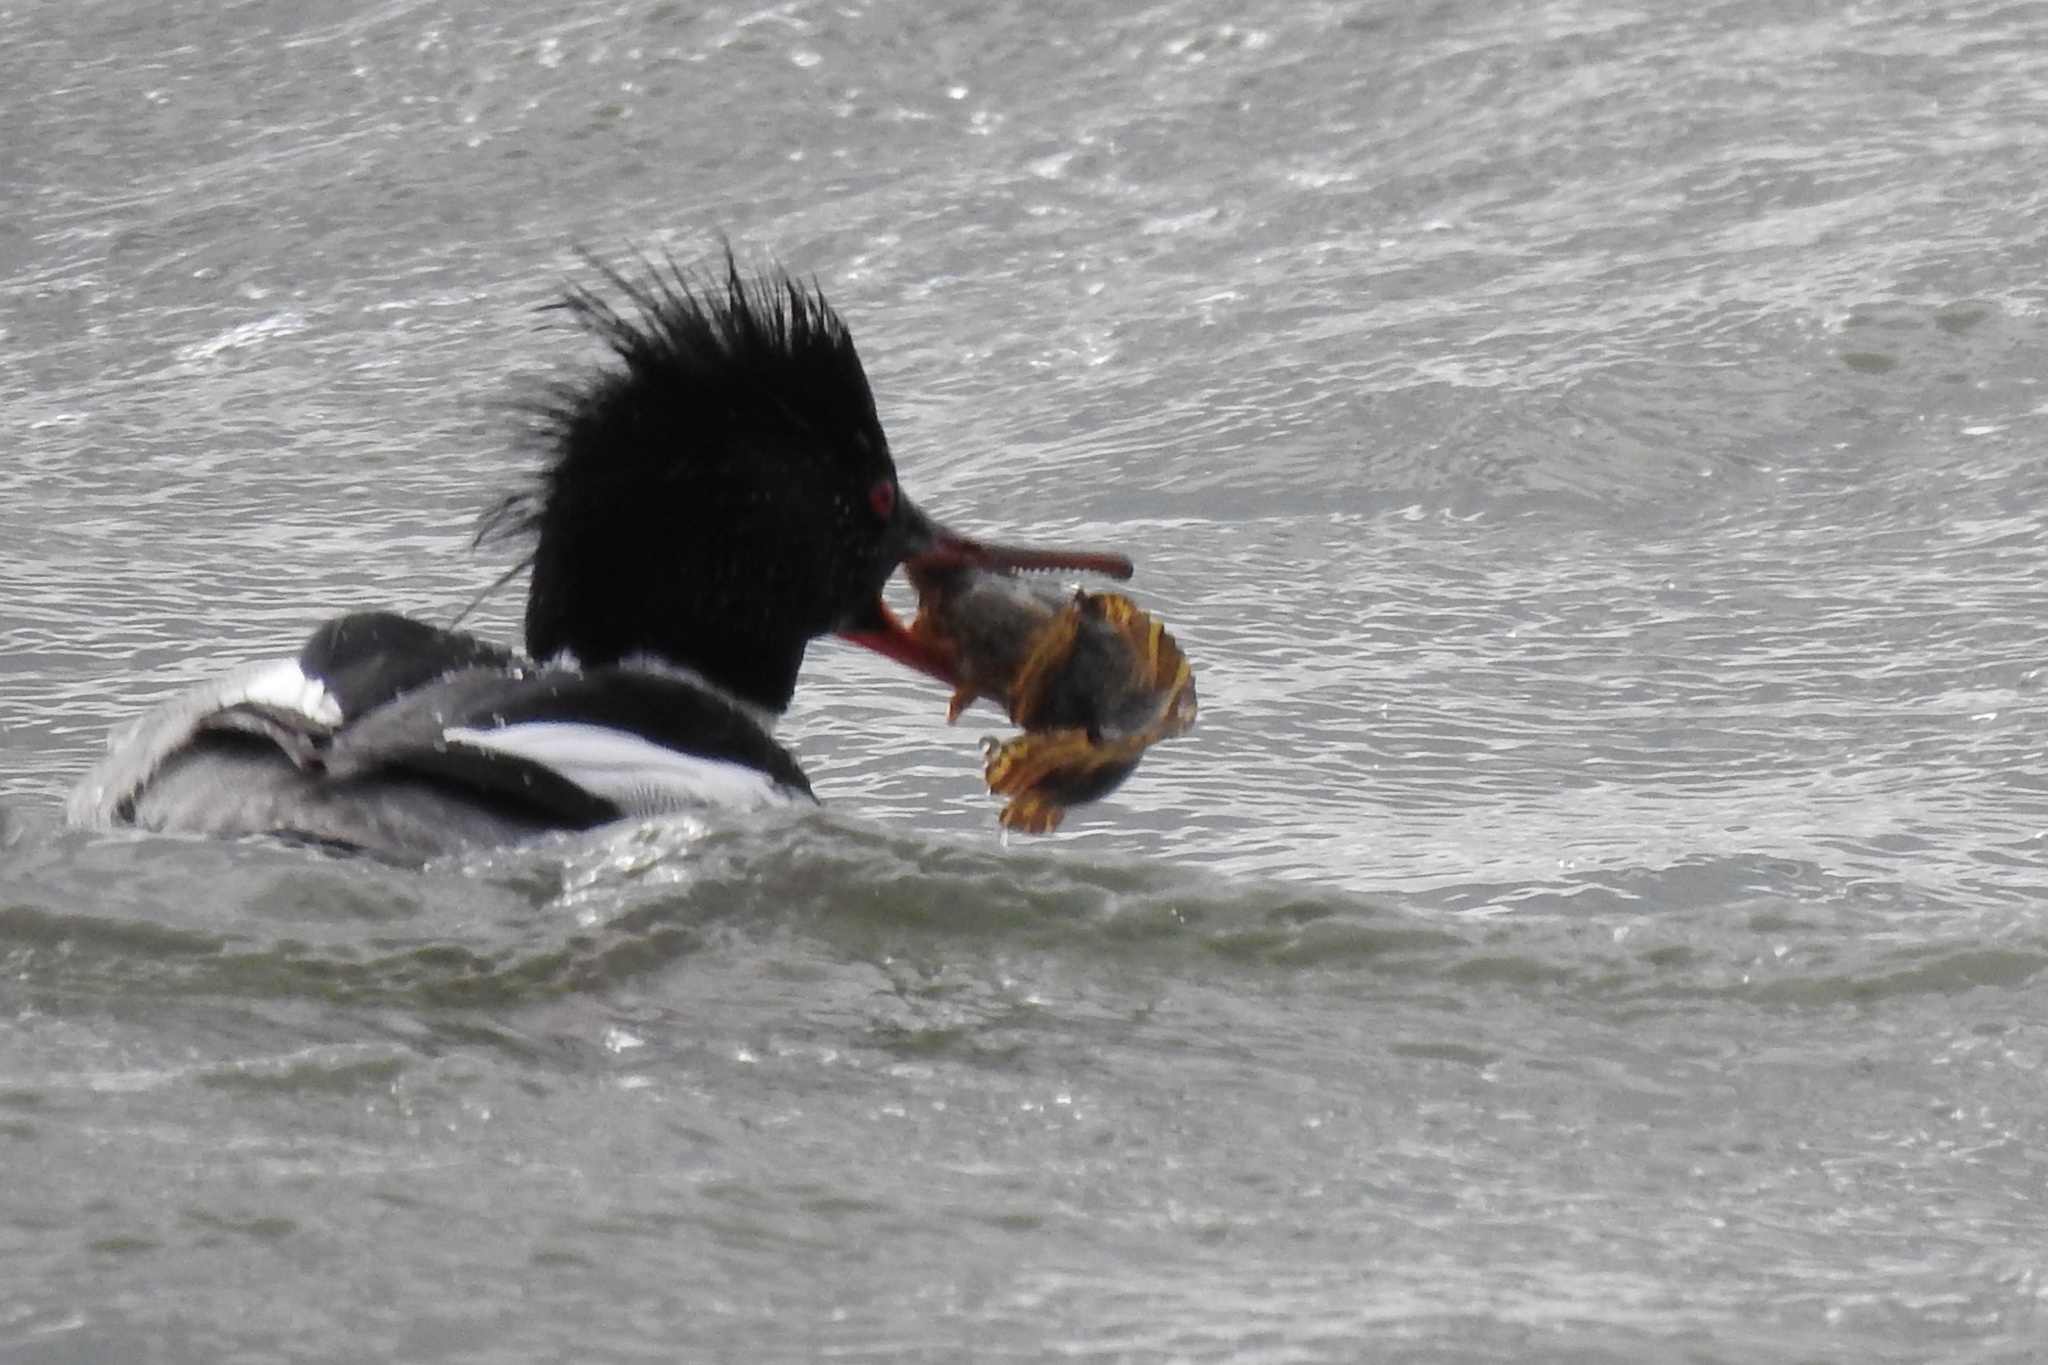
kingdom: Animalia
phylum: Chordata
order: Batrachoidiformes
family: Batrachoididae
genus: Opsanus
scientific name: Opsanus tau
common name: Oyster toadfish
